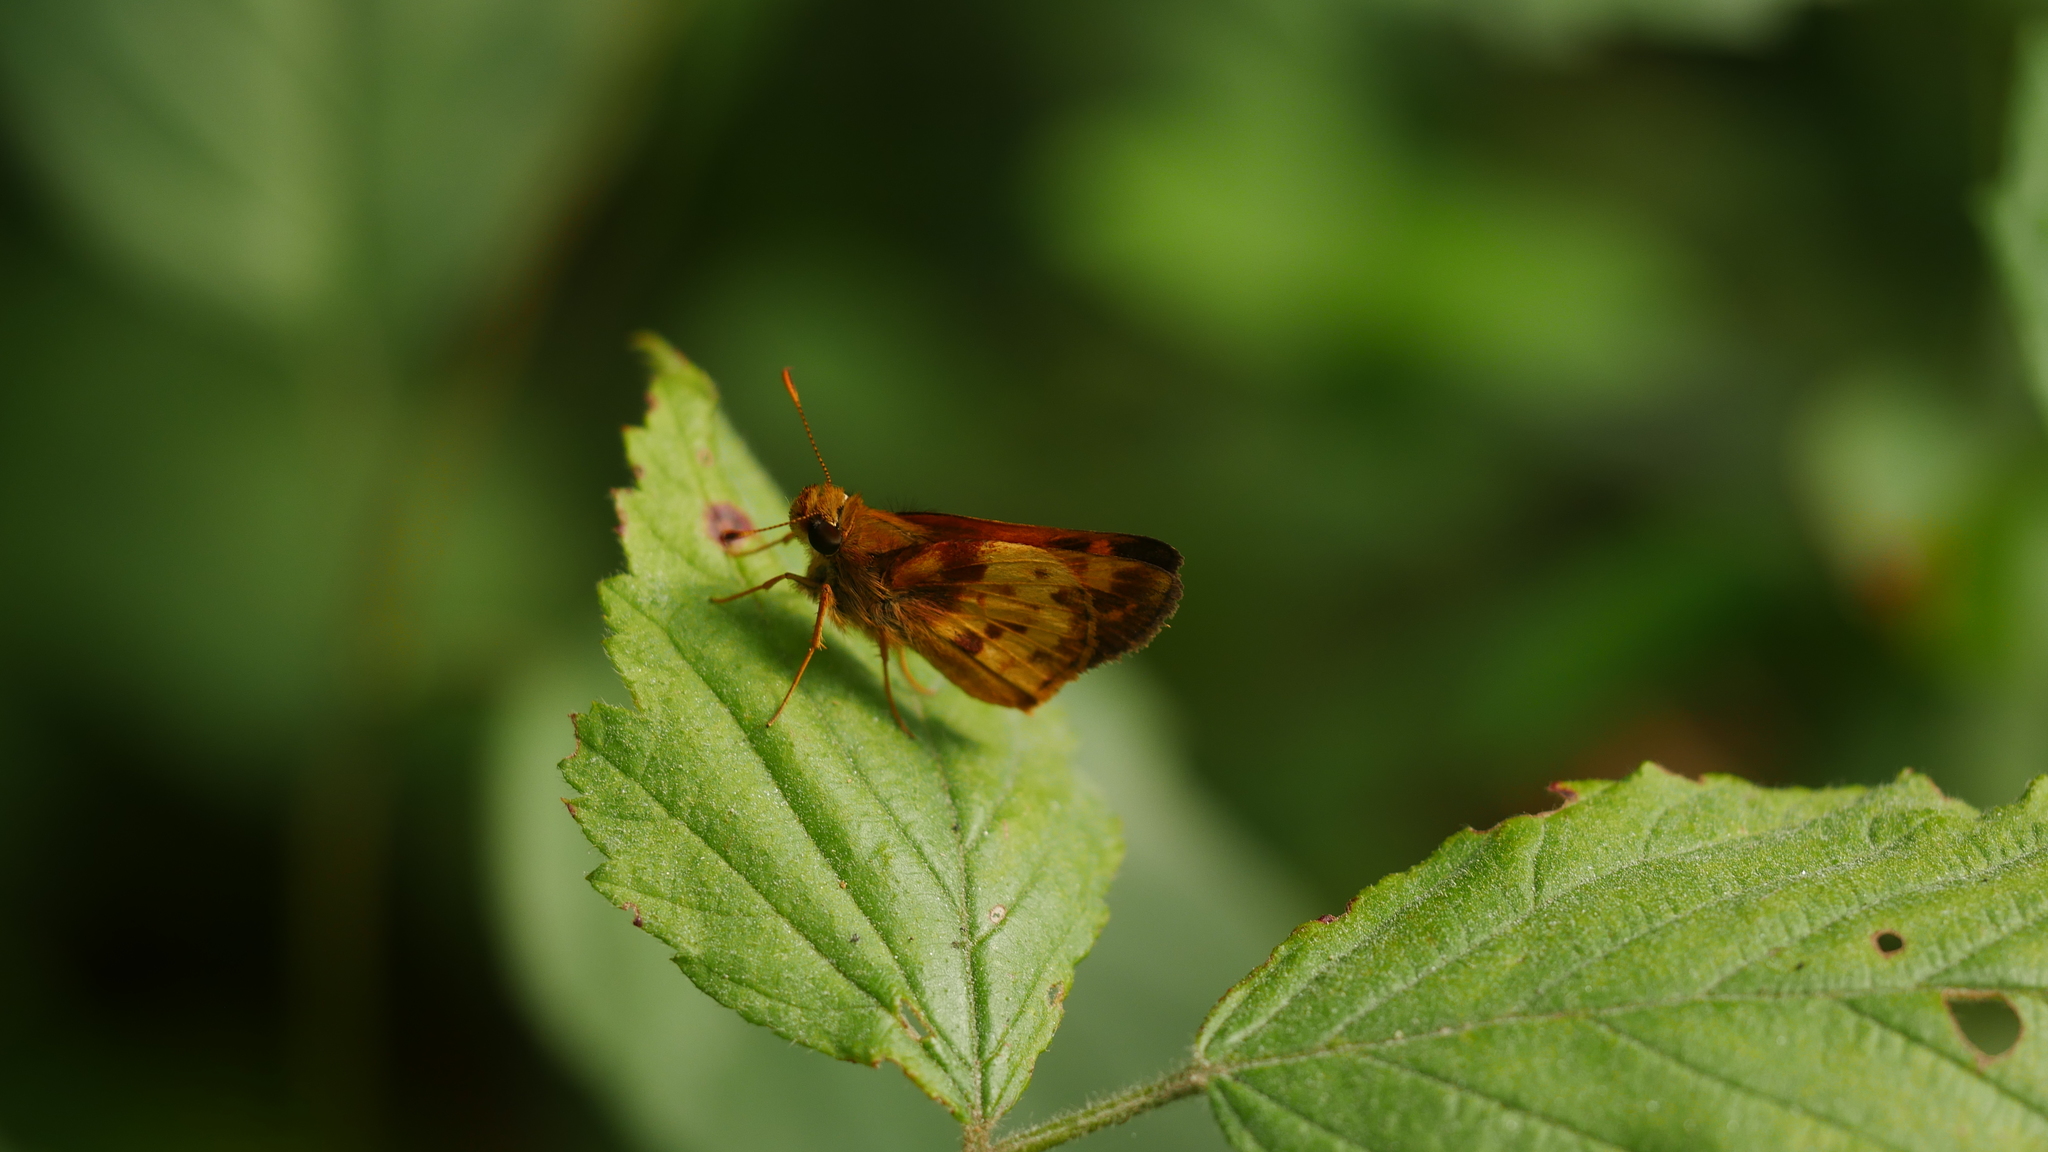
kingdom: Animalia
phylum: Arthropoda
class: Insecta
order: Lepidoptera
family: Hesperiidae
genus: Lon
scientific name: Lon zabulon
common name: Zabulon skipper
